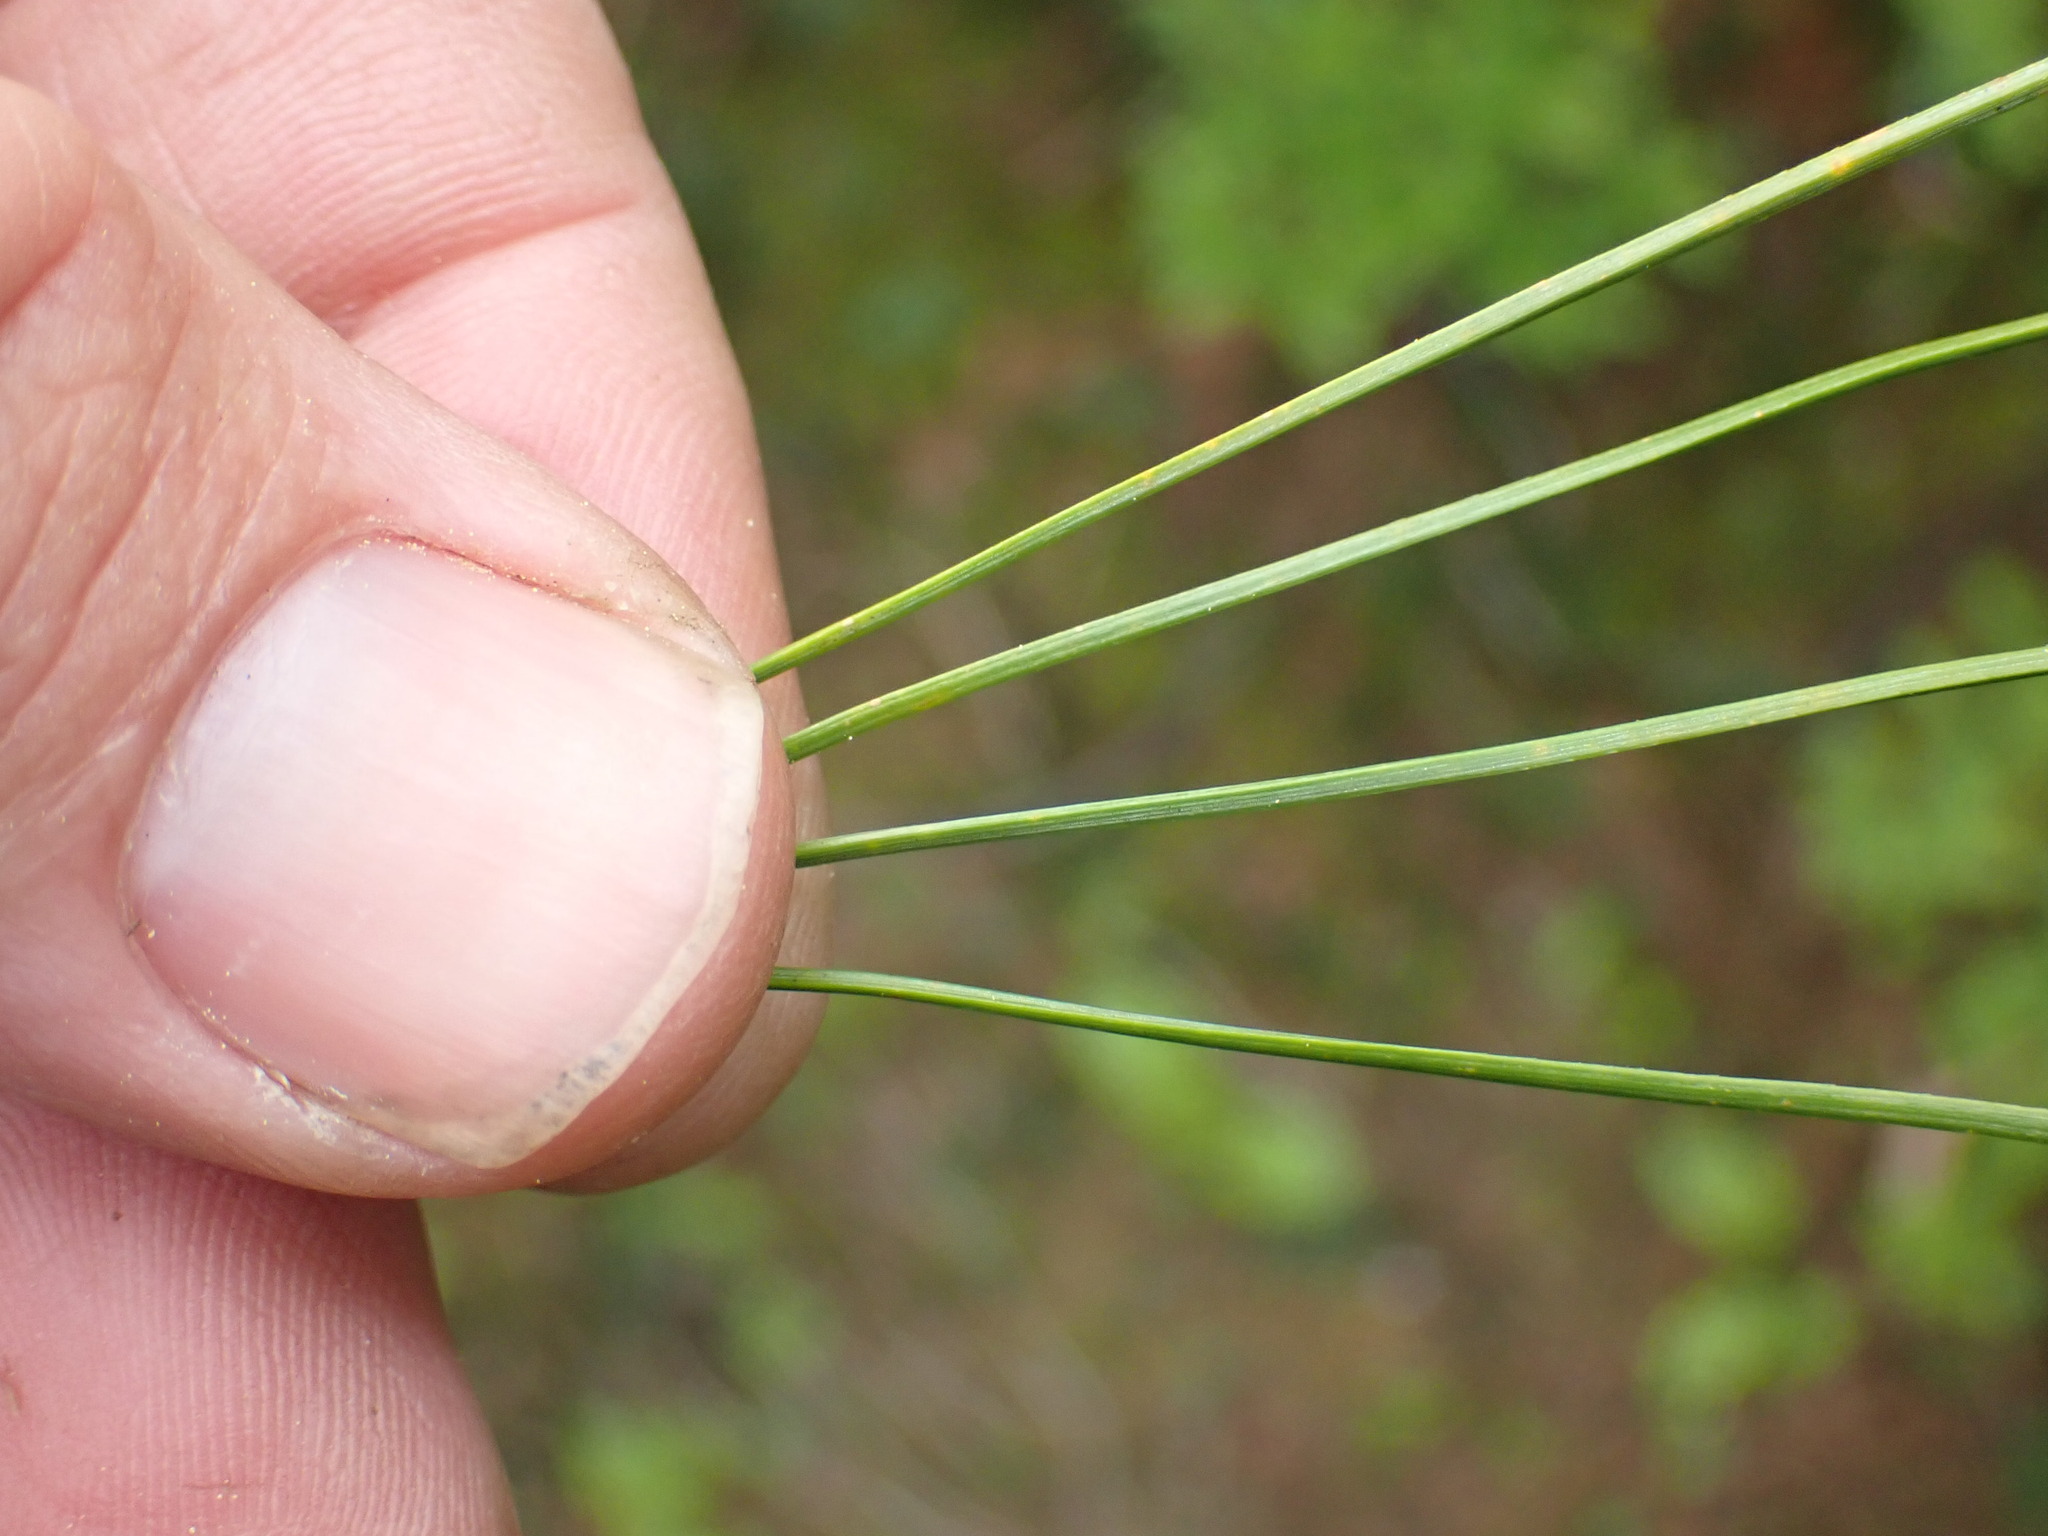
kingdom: Plantae
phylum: Tracheophyta
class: Pinopsida
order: Pinales
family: Pinaceae
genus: Pinus
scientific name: Pinus monticola
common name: Western white pine
